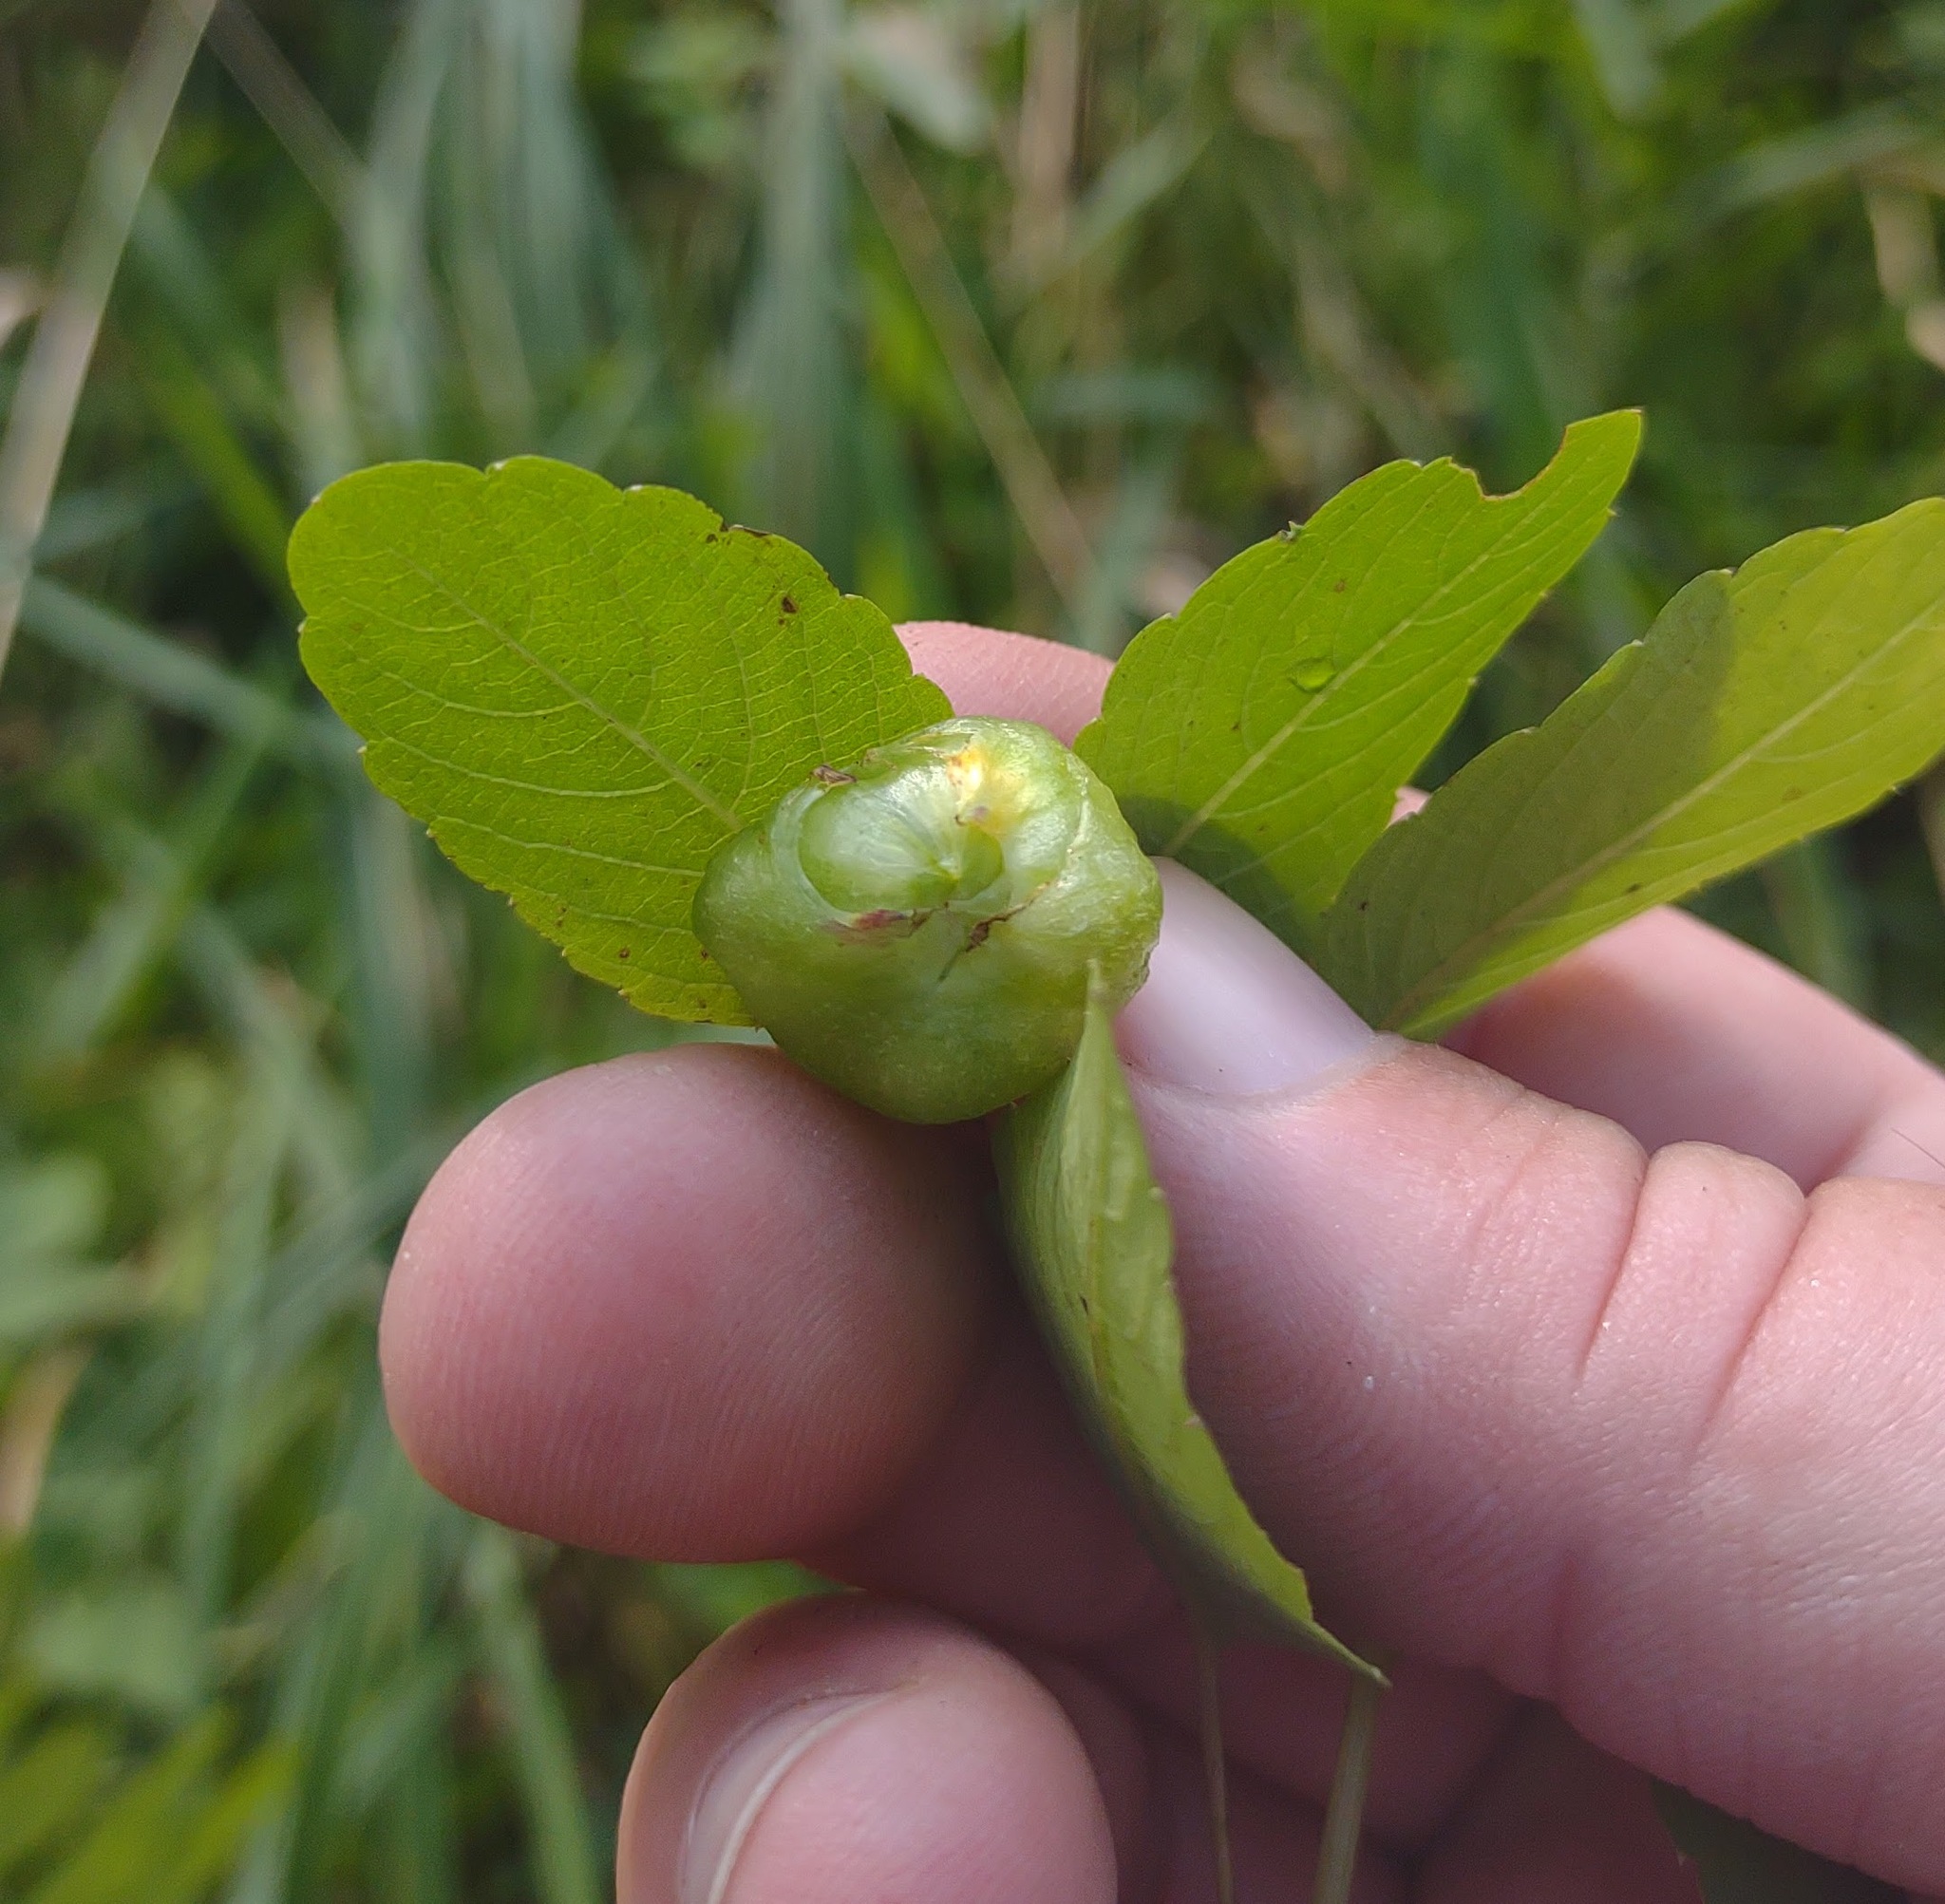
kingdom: Animalia
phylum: Arthropoda
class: Insecta
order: Diptera
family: Cecidomyiidae
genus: Schizomyia
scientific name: Schizomyia impatientis
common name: Jewelweed gall midge
